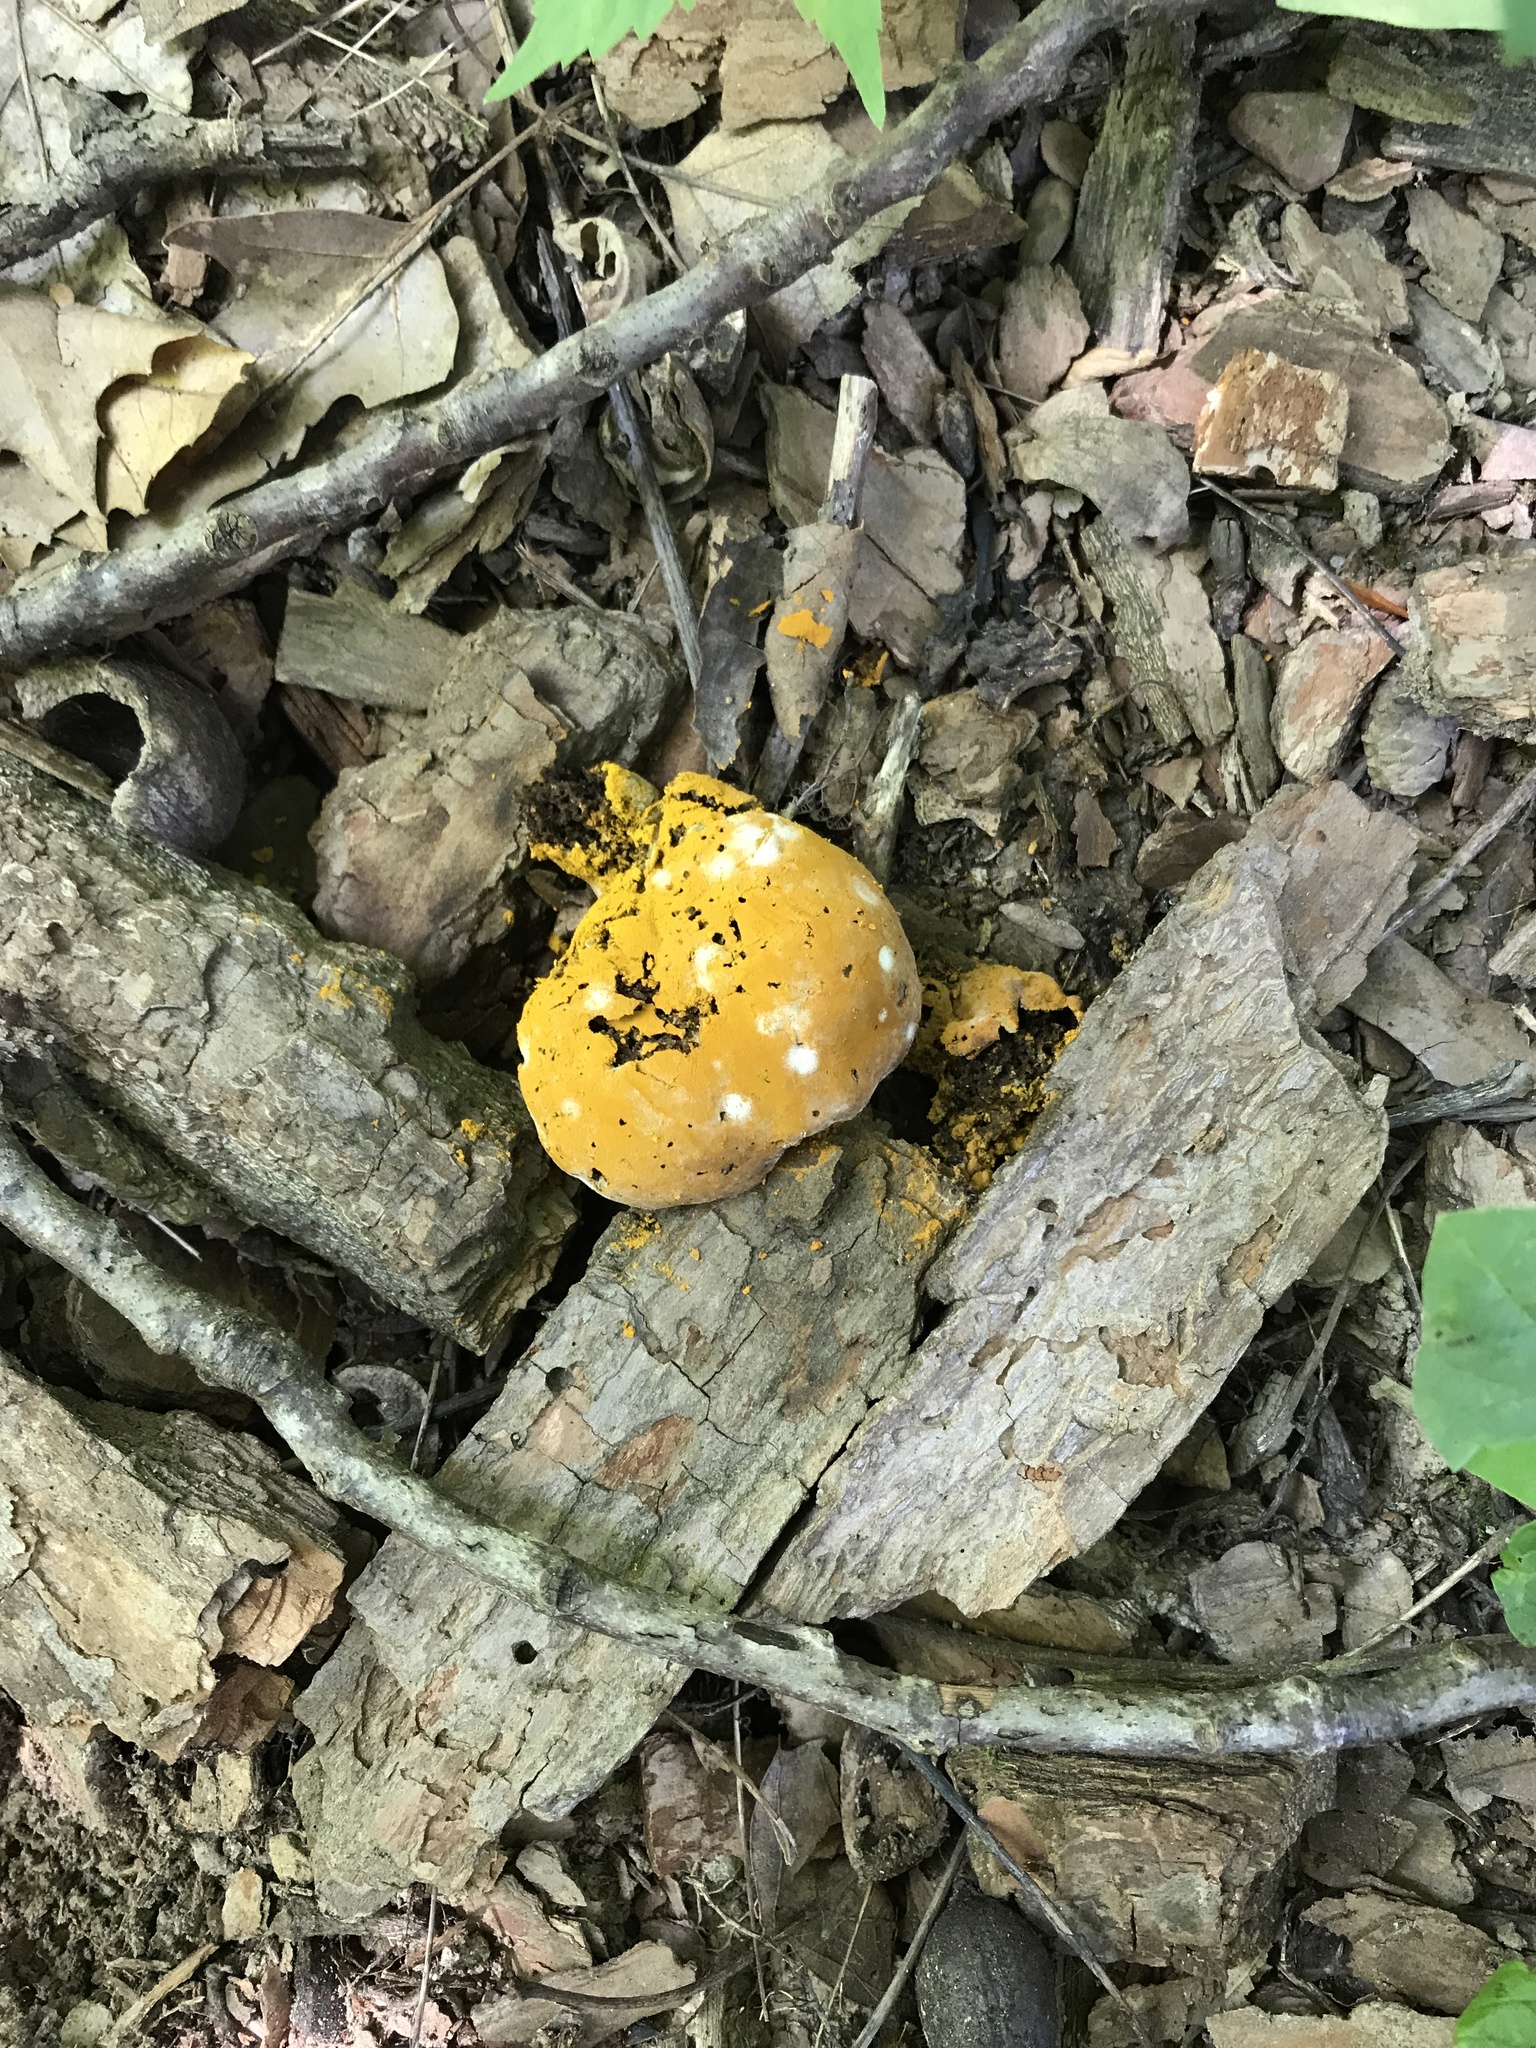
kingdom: Fungi
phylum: Ascomycota
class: Sordariomycetes
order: Hypocreales
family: Hypocreaceae
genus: Hypomyces
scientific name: Hypomyces chrysospermus
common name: Bolete mould
